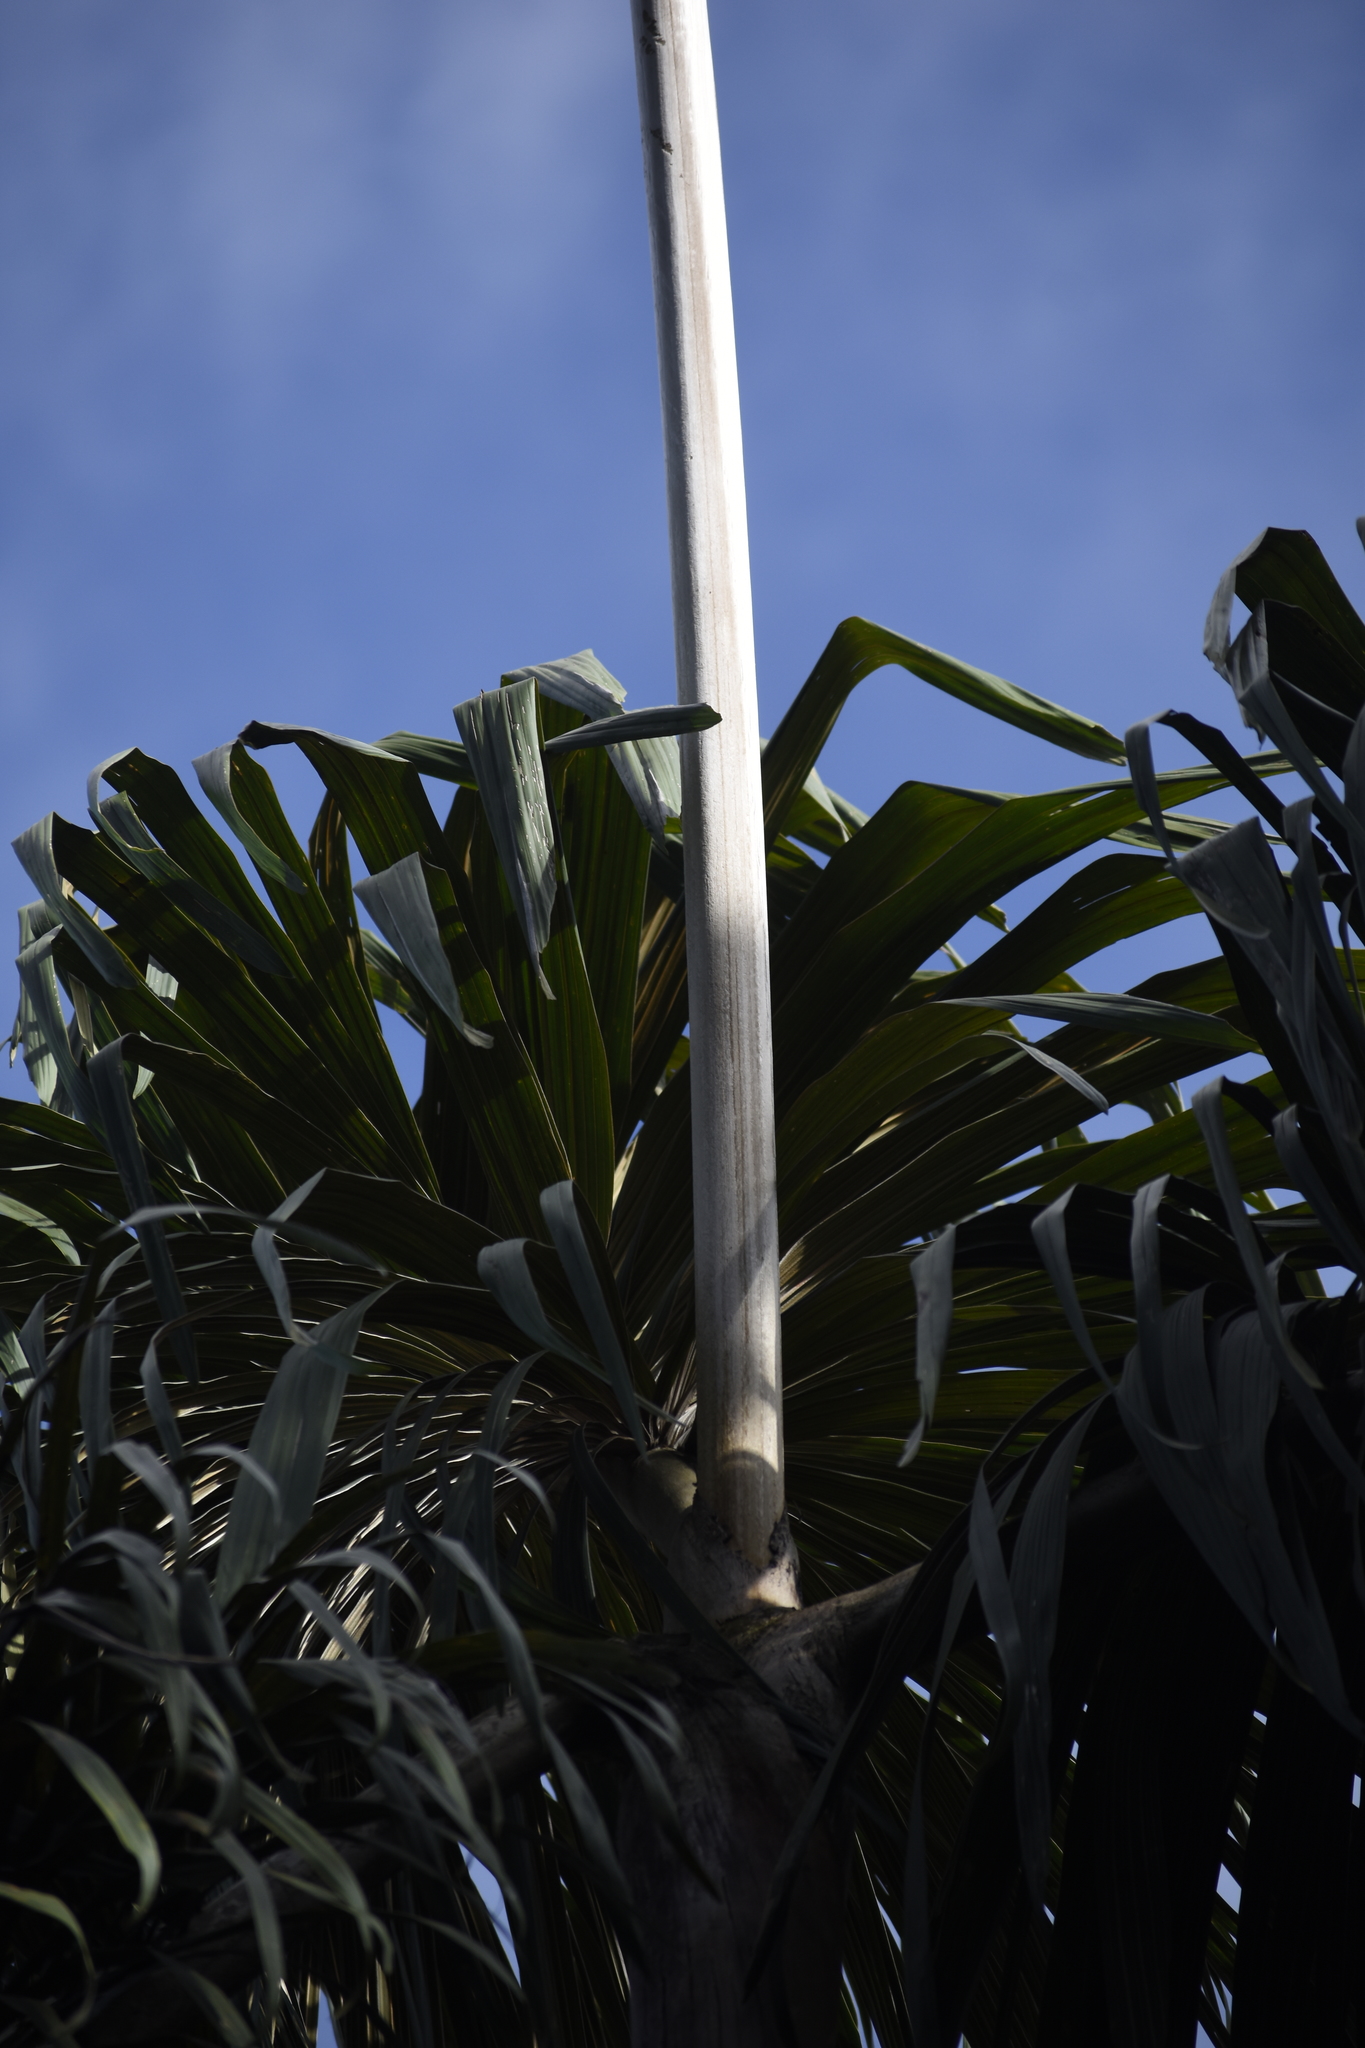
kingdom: Plantae
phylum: Tracheophyta
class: Liliopsida
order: Arecales
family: Arecaceae
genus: Wettinia
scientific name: Wettinia kalbreyeri
